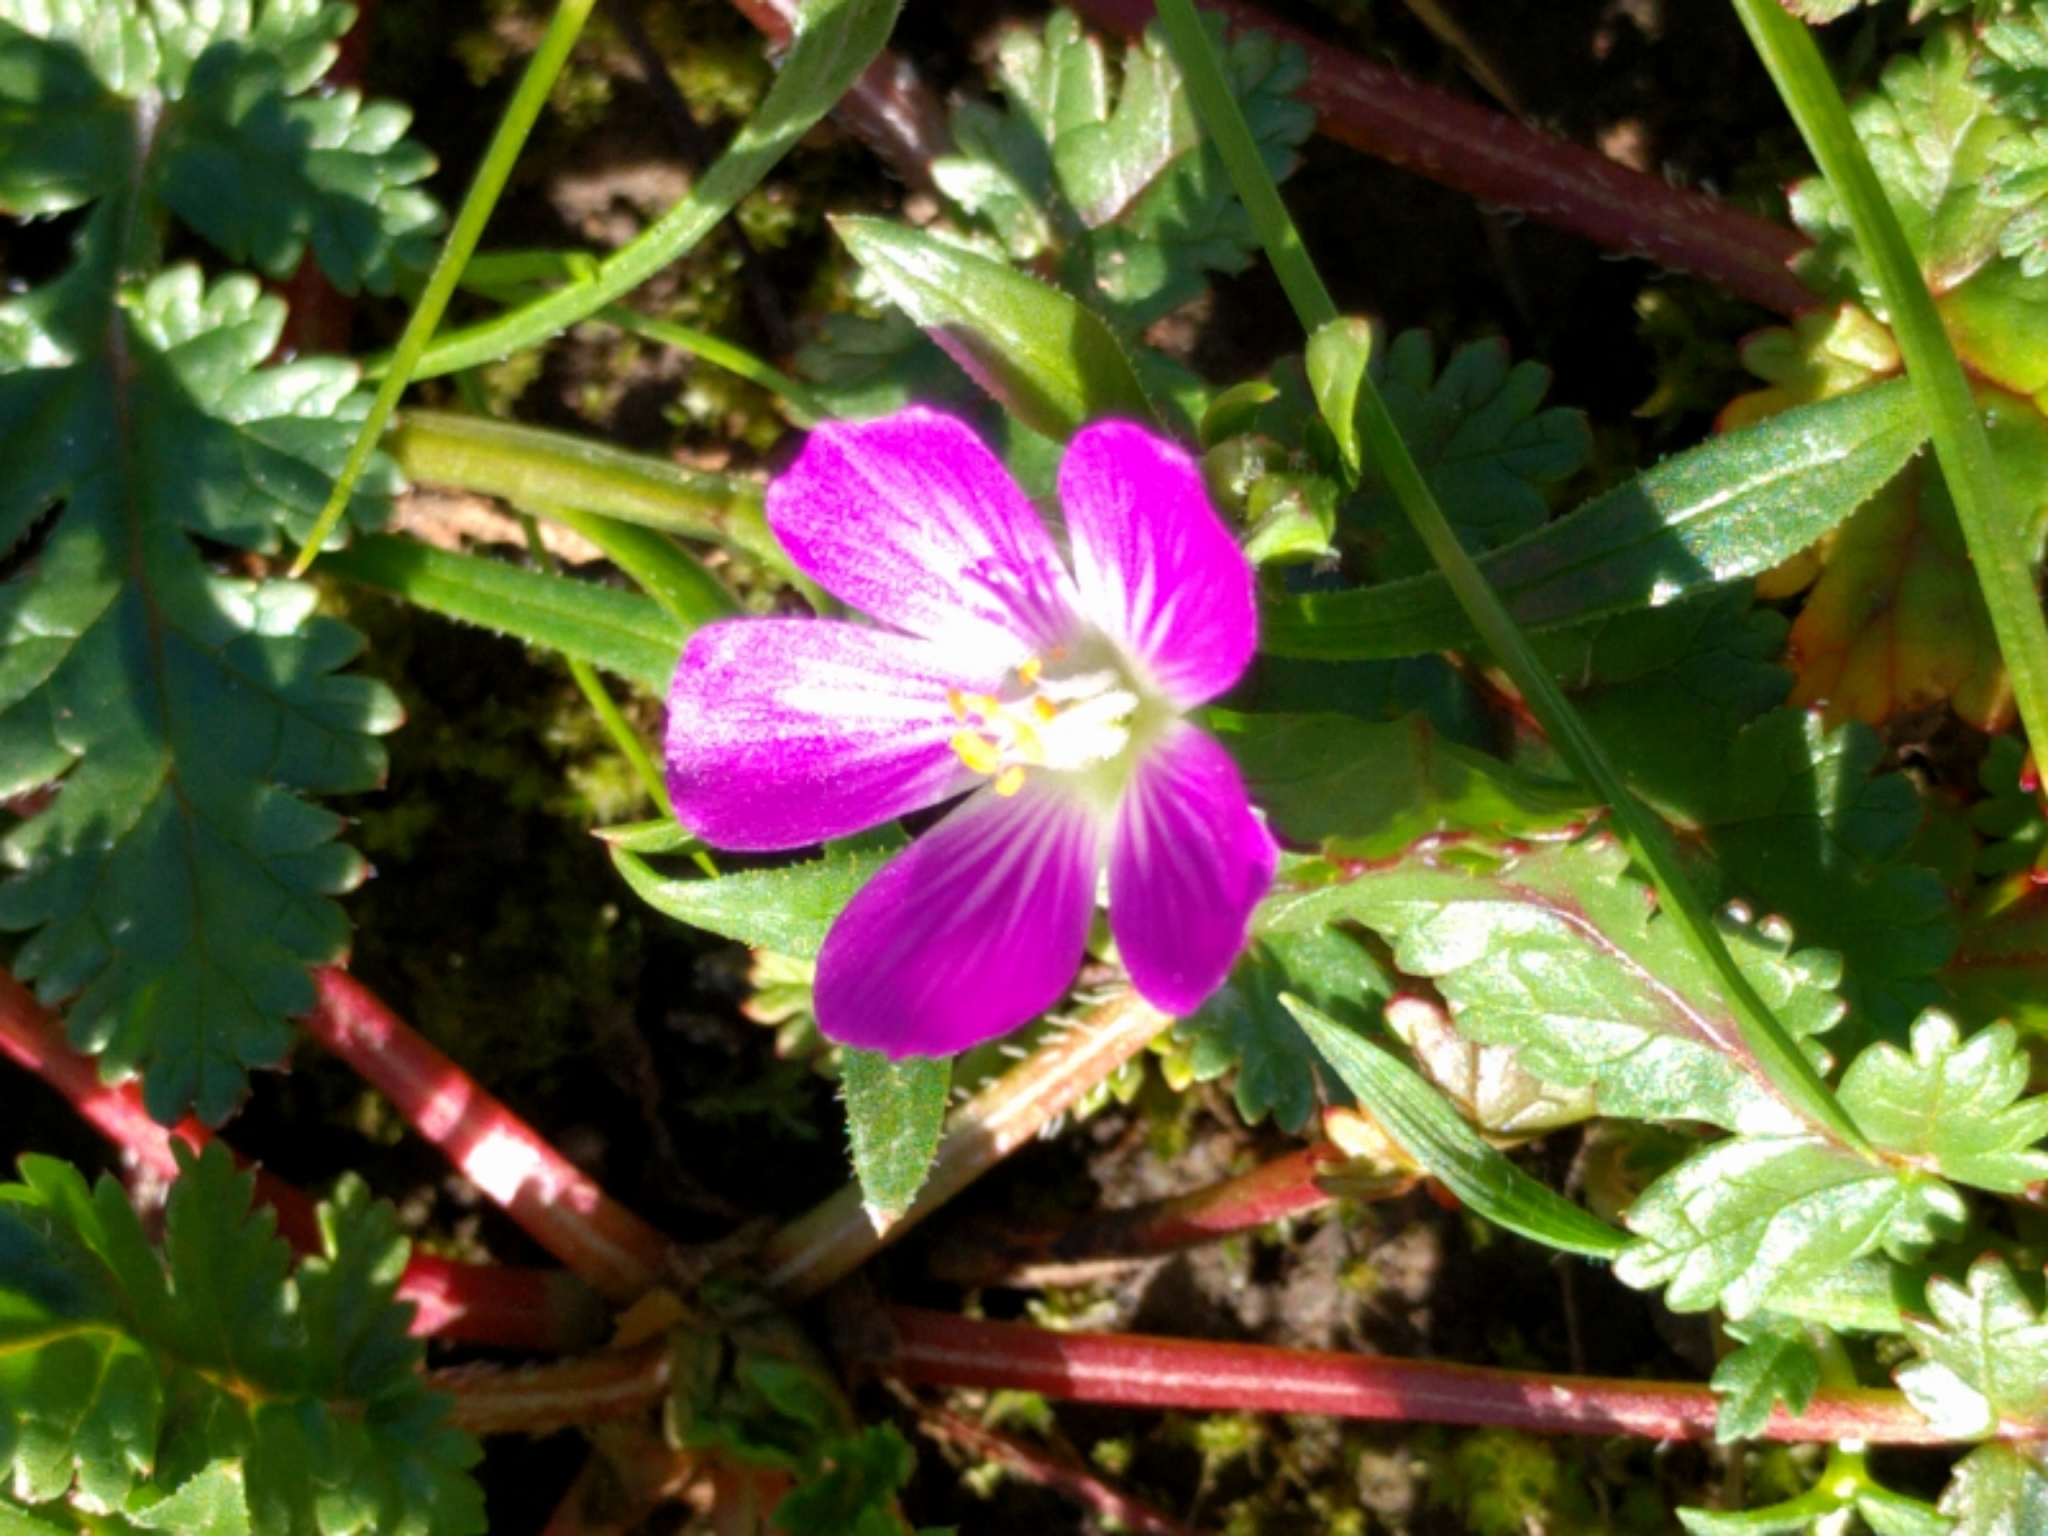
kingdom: Plantae
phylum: Tracheophyta
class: Magnoliopsida
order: Caryophyllales
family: Montiaceae
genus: Calandrinia
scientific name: Calandrinia menziesii
